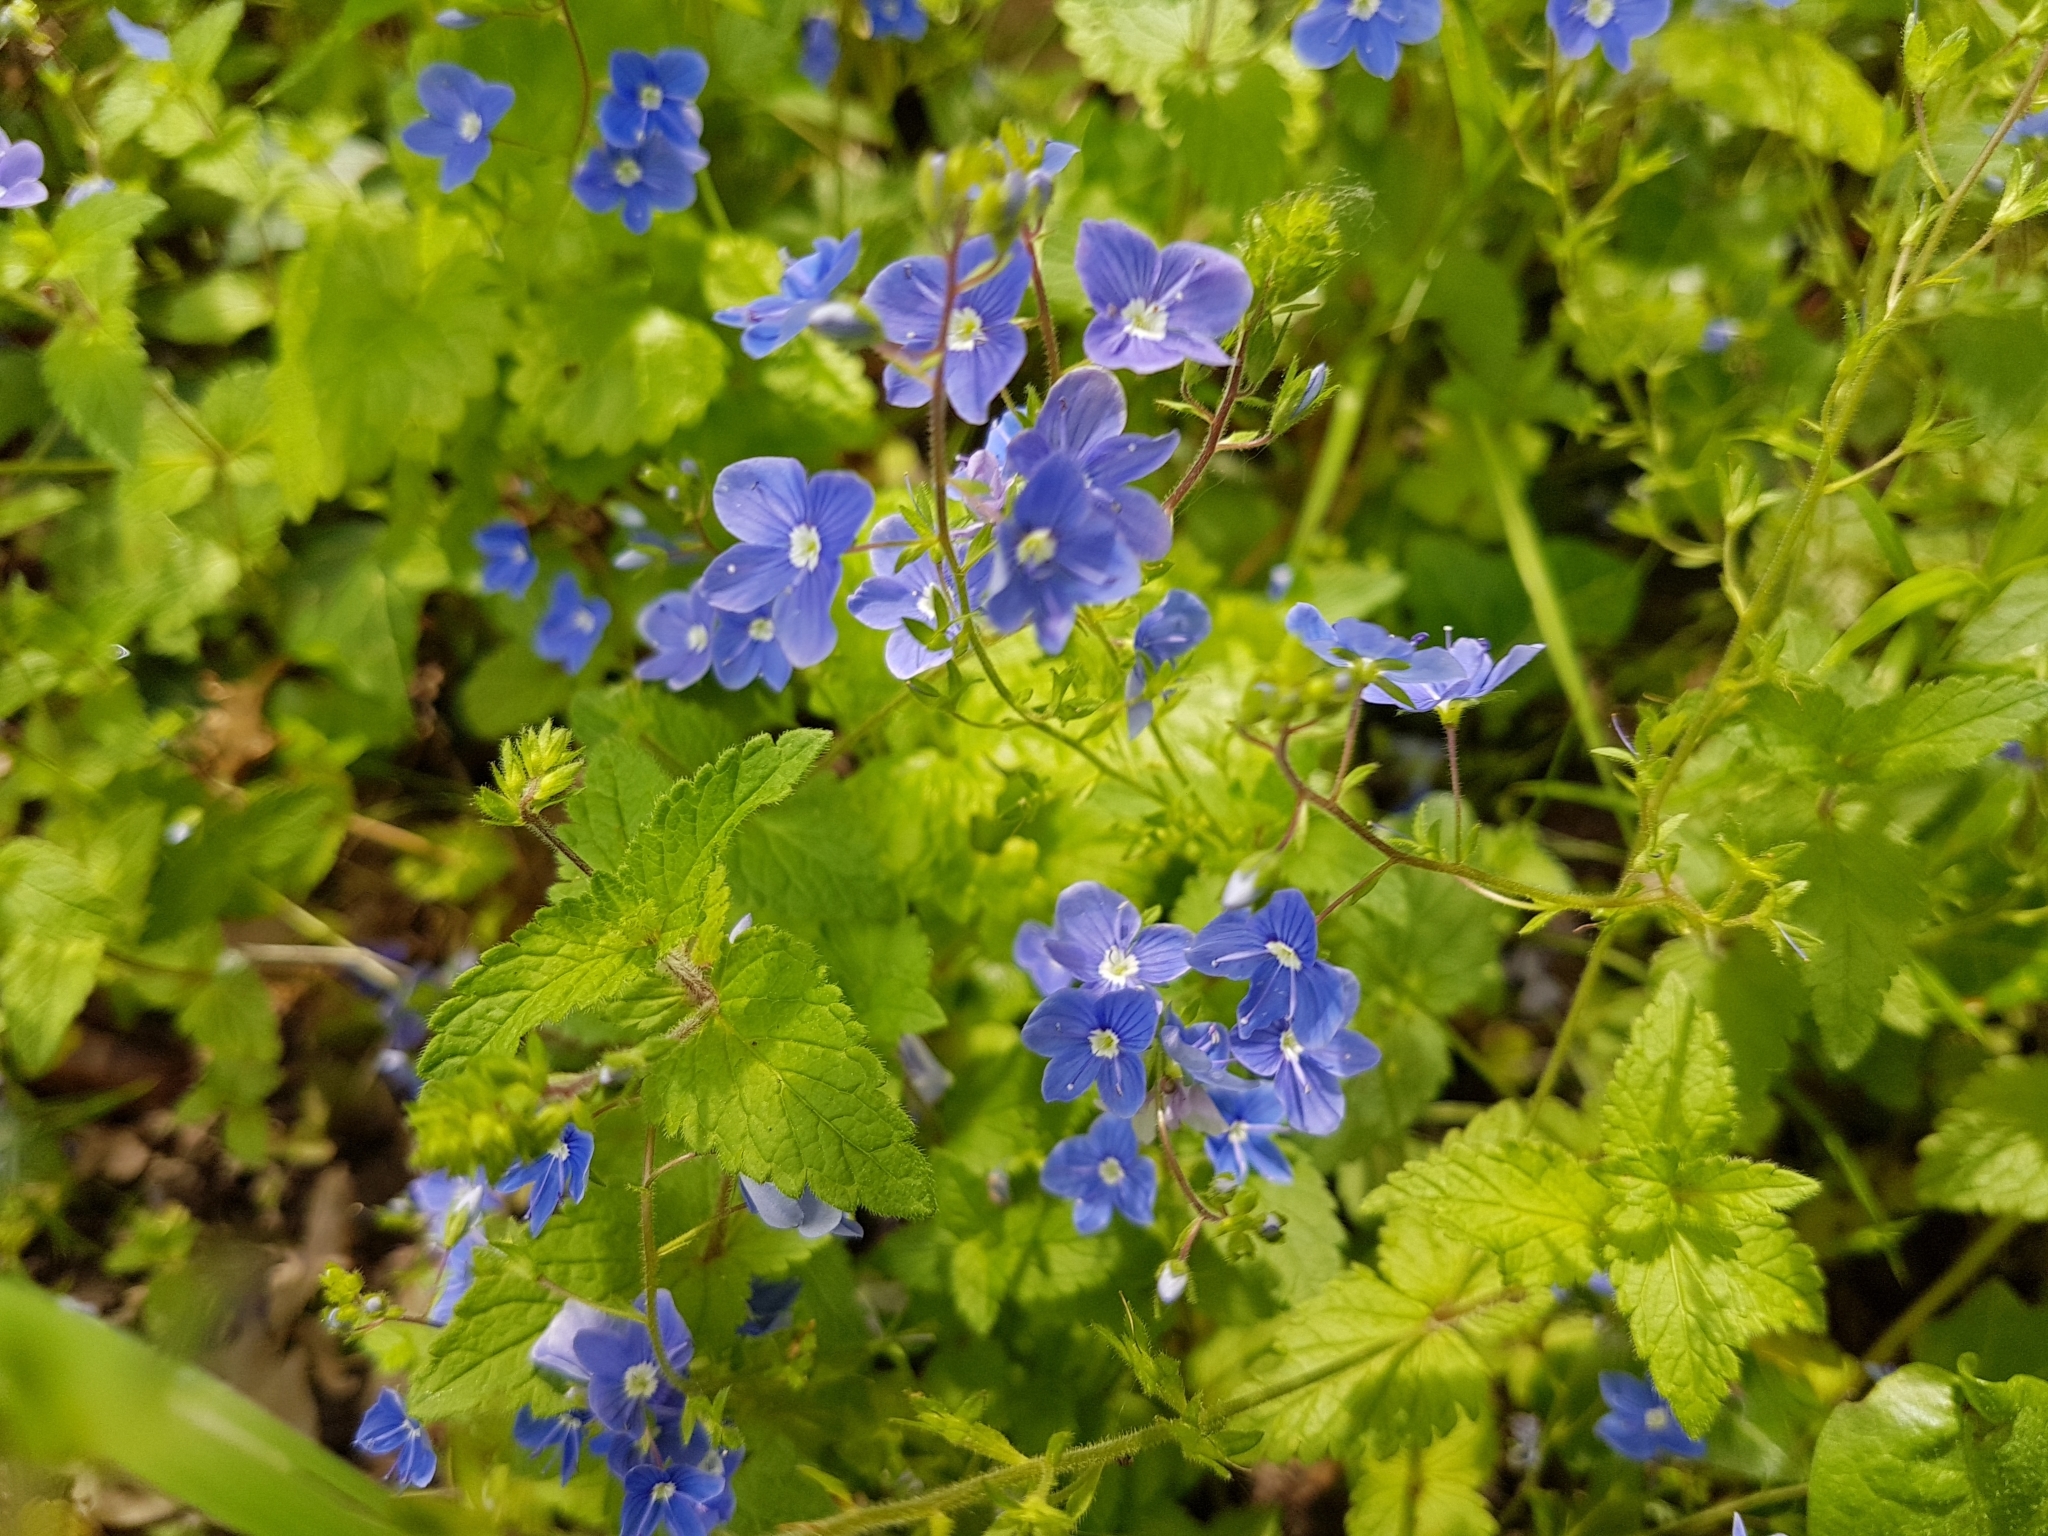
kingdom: Plantae
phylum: Tracheophyta
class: Magnoliopsida
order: Lamiales
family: Plantaginaceae
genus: Veronica
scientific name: Veronica chamaedrys
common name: Germander speedwell
